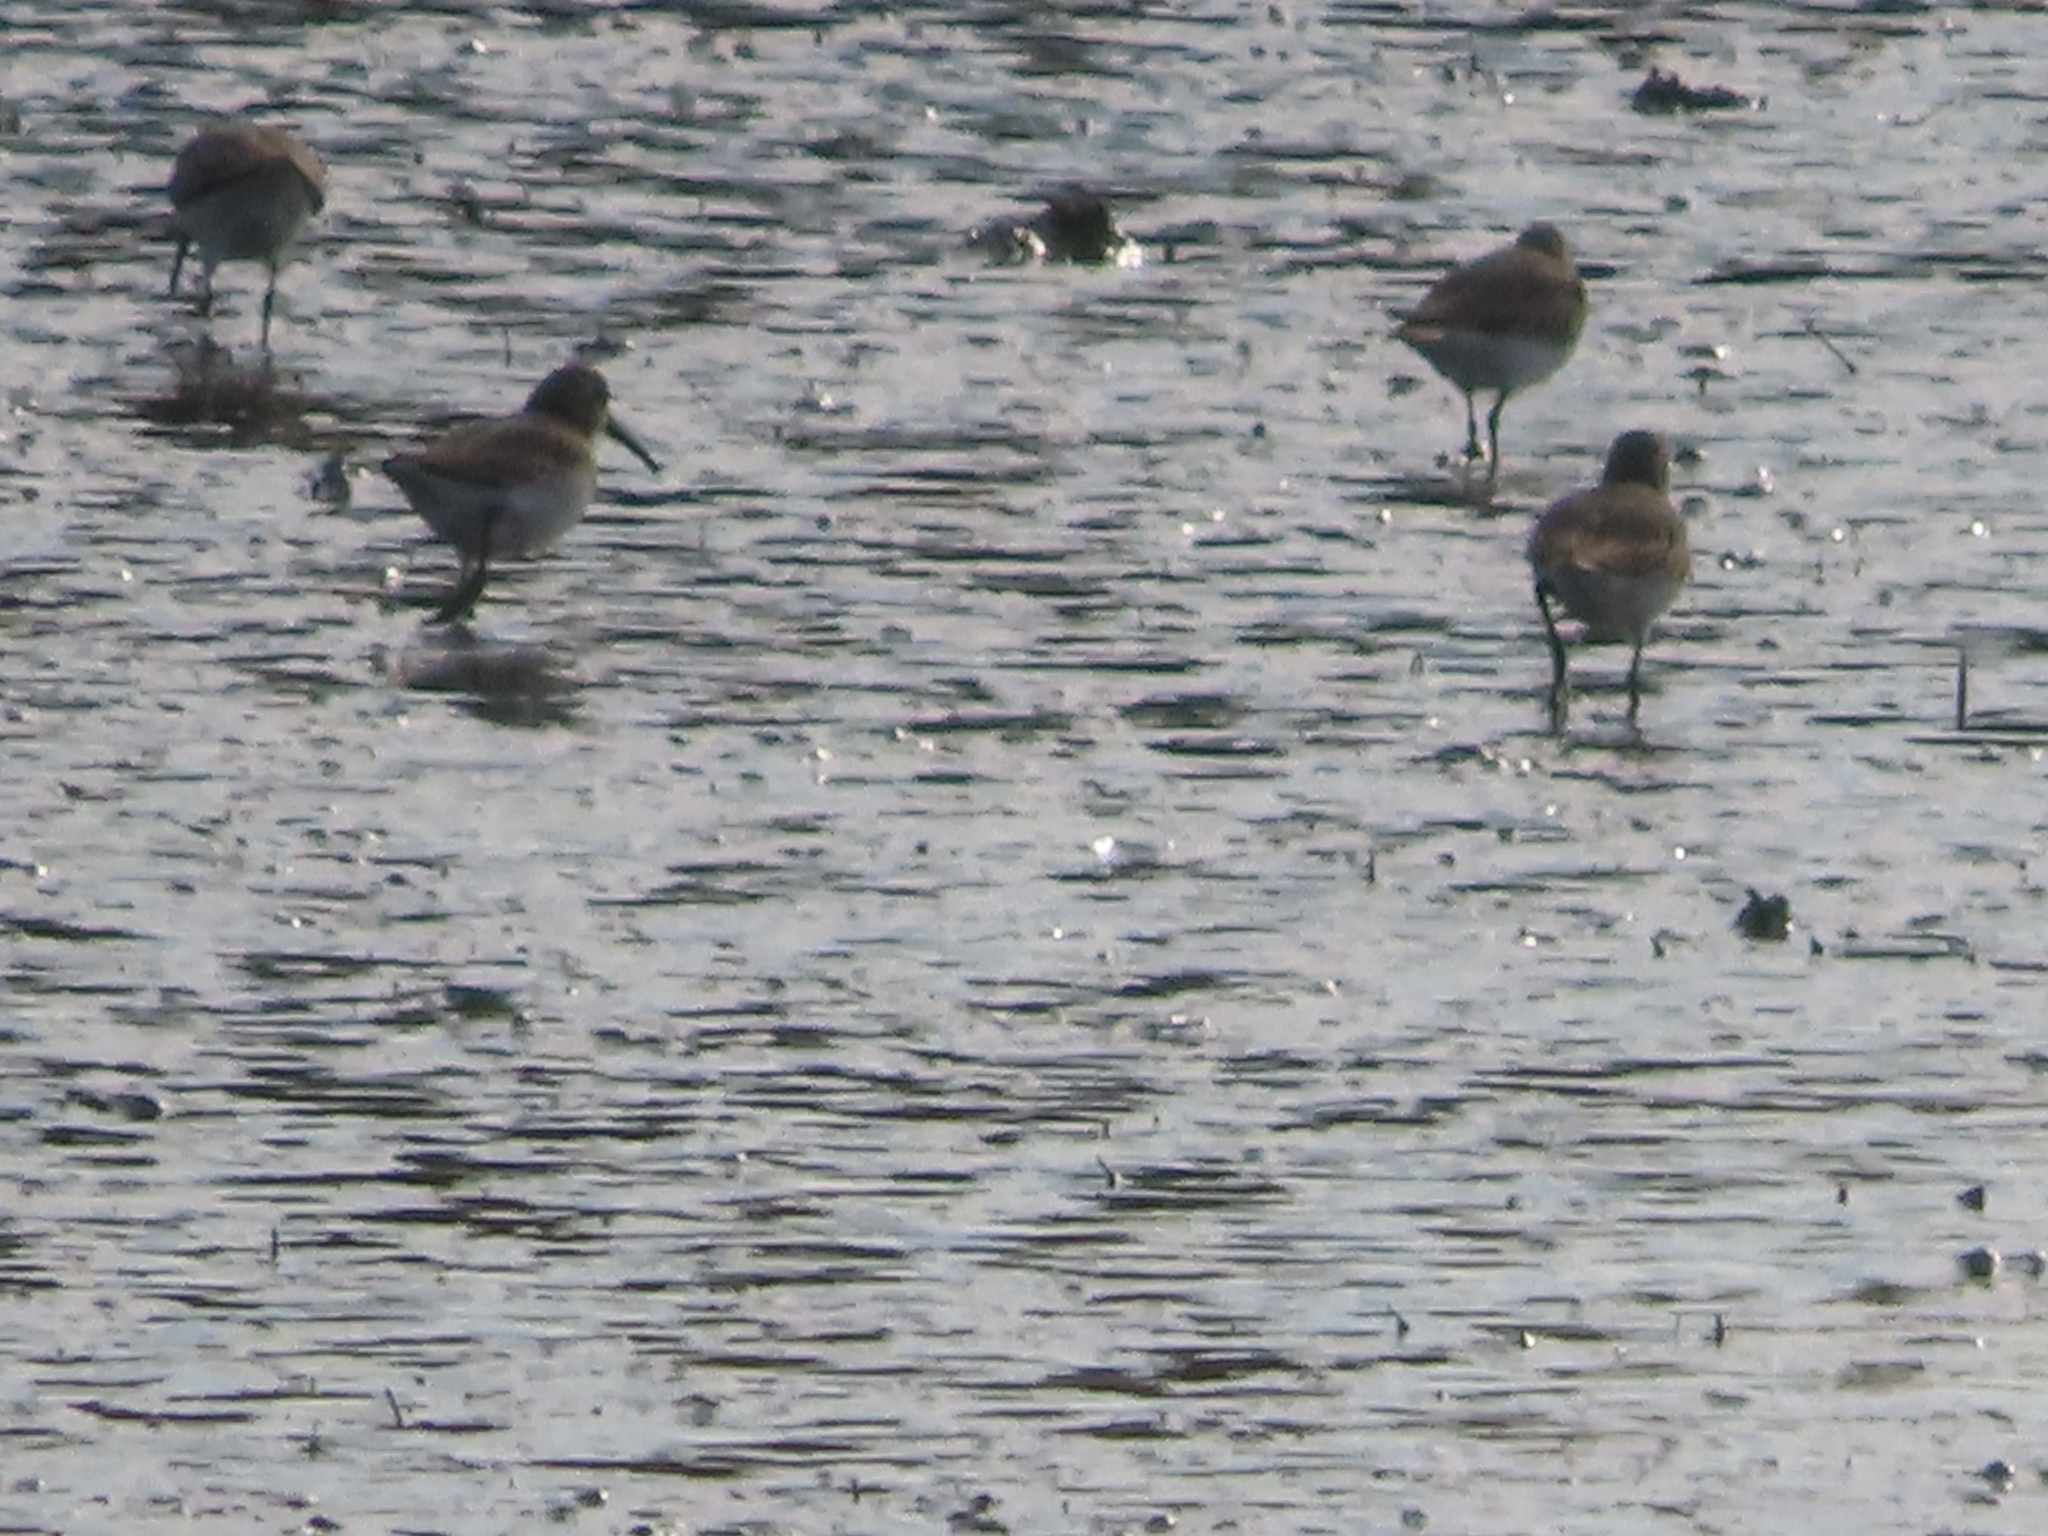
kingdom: Animalia
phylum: Chordata
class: Aves
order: Charadriiformes
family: Scolopacidae
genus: Calidris
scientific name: Calidris alpina
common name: Dunlin
